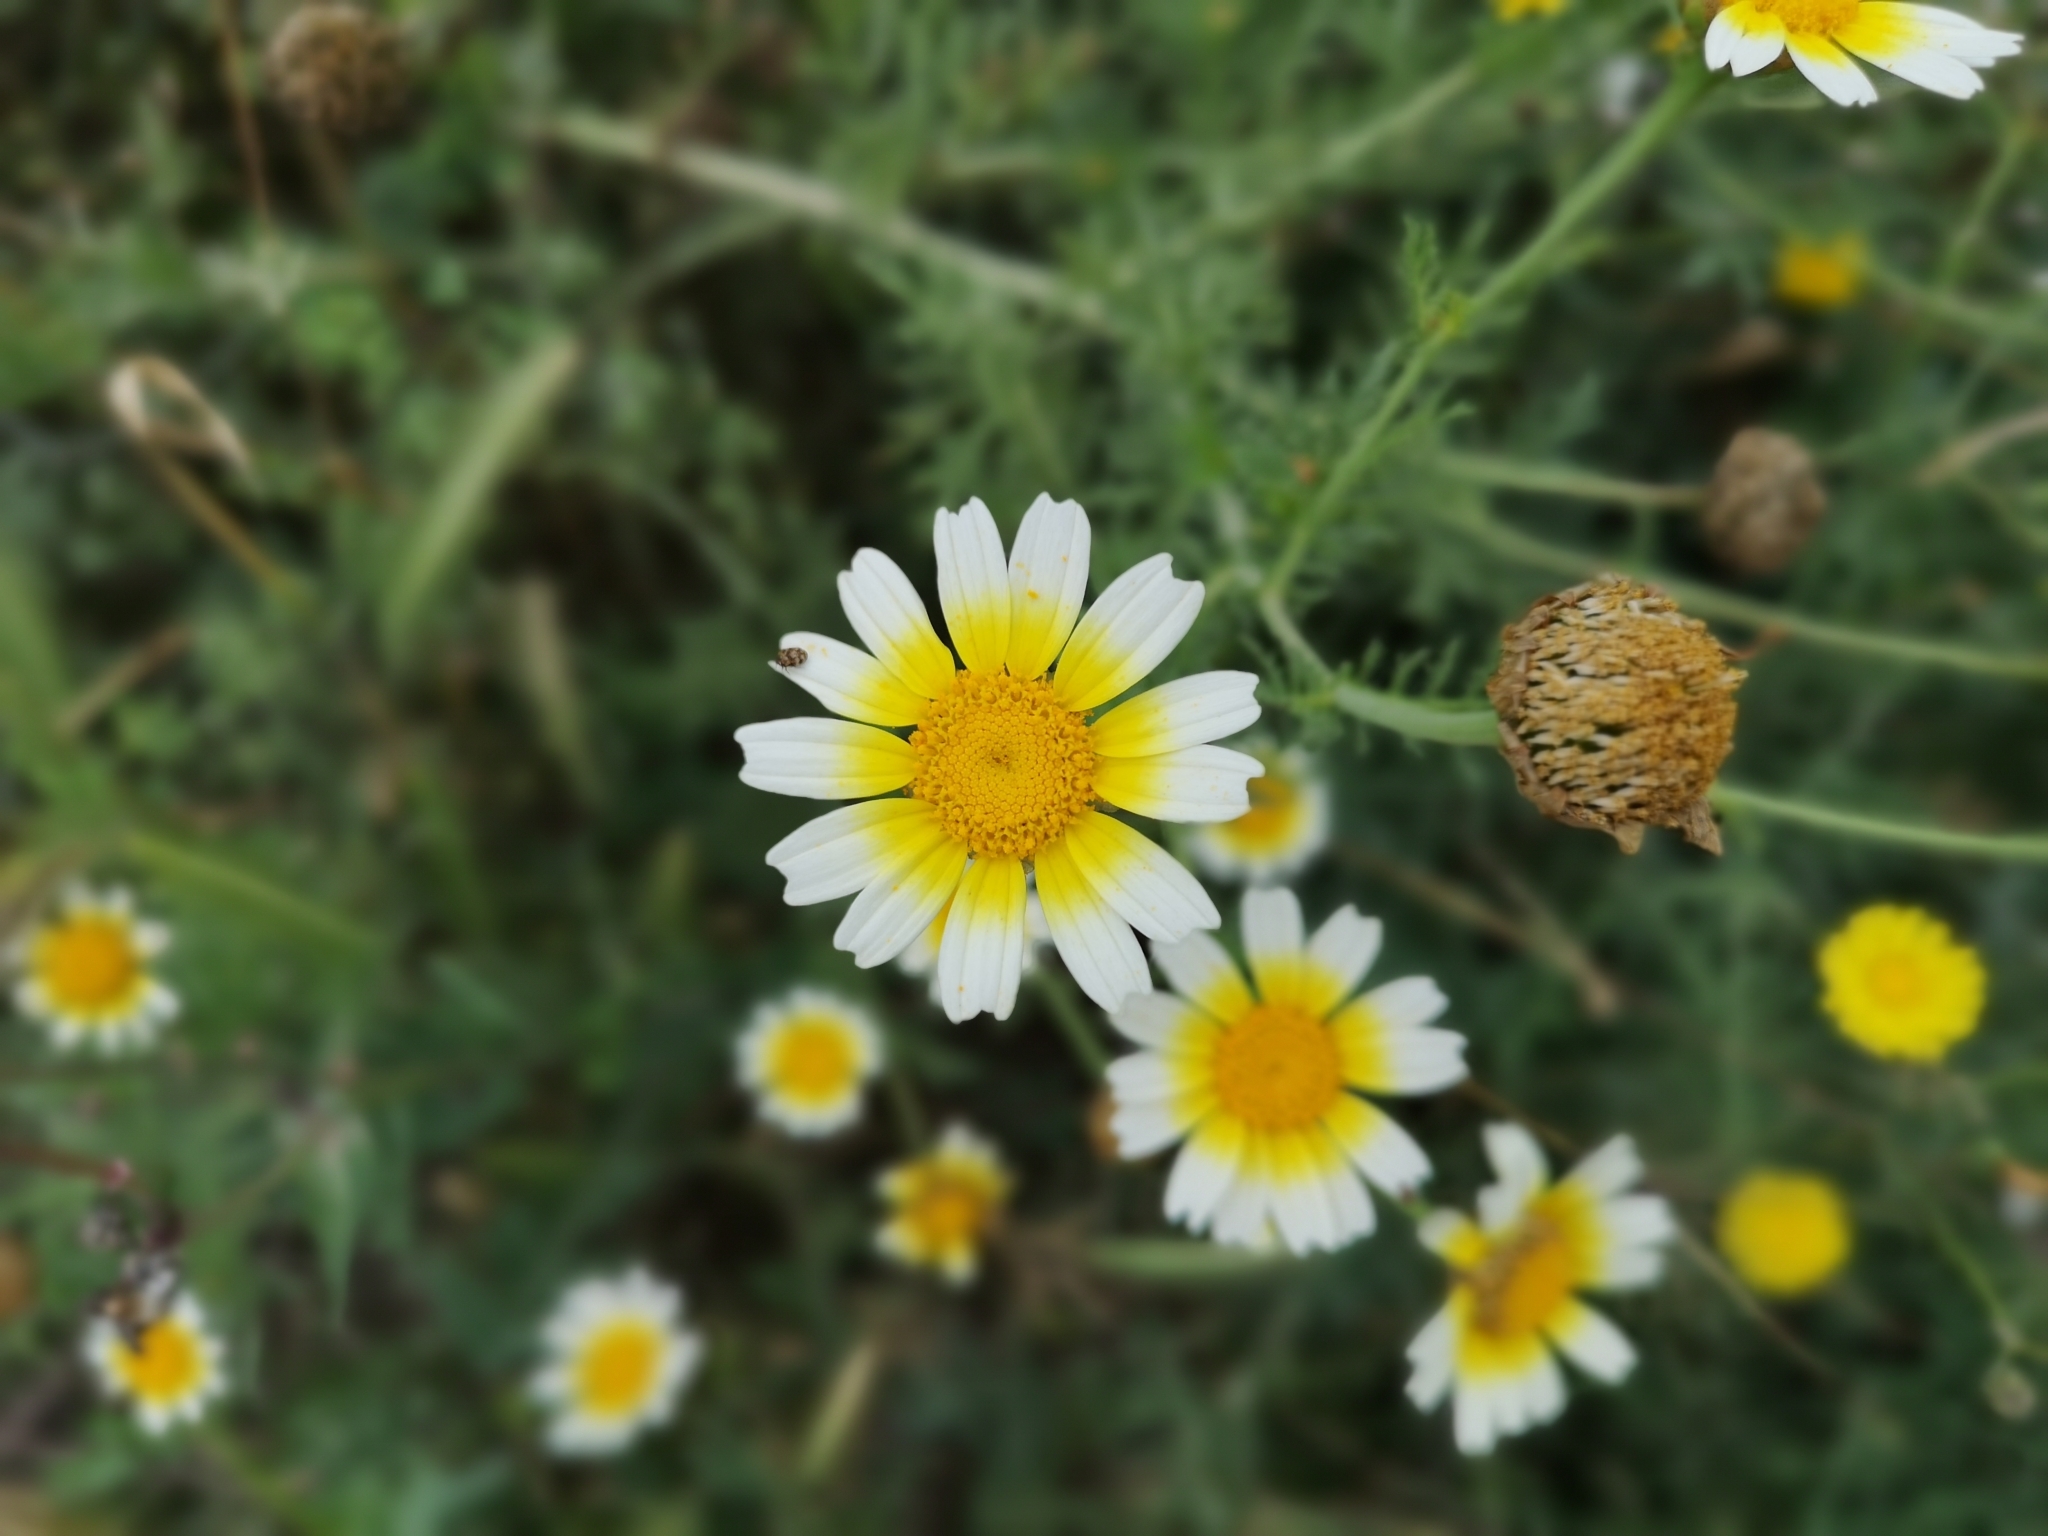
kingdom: Plantae
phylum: Tracheophyta
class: Magnoliopsida
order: Asterales
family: Asteraceae
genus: Glebionis
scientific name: Glebionis coronaria
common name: Crowndaisy
